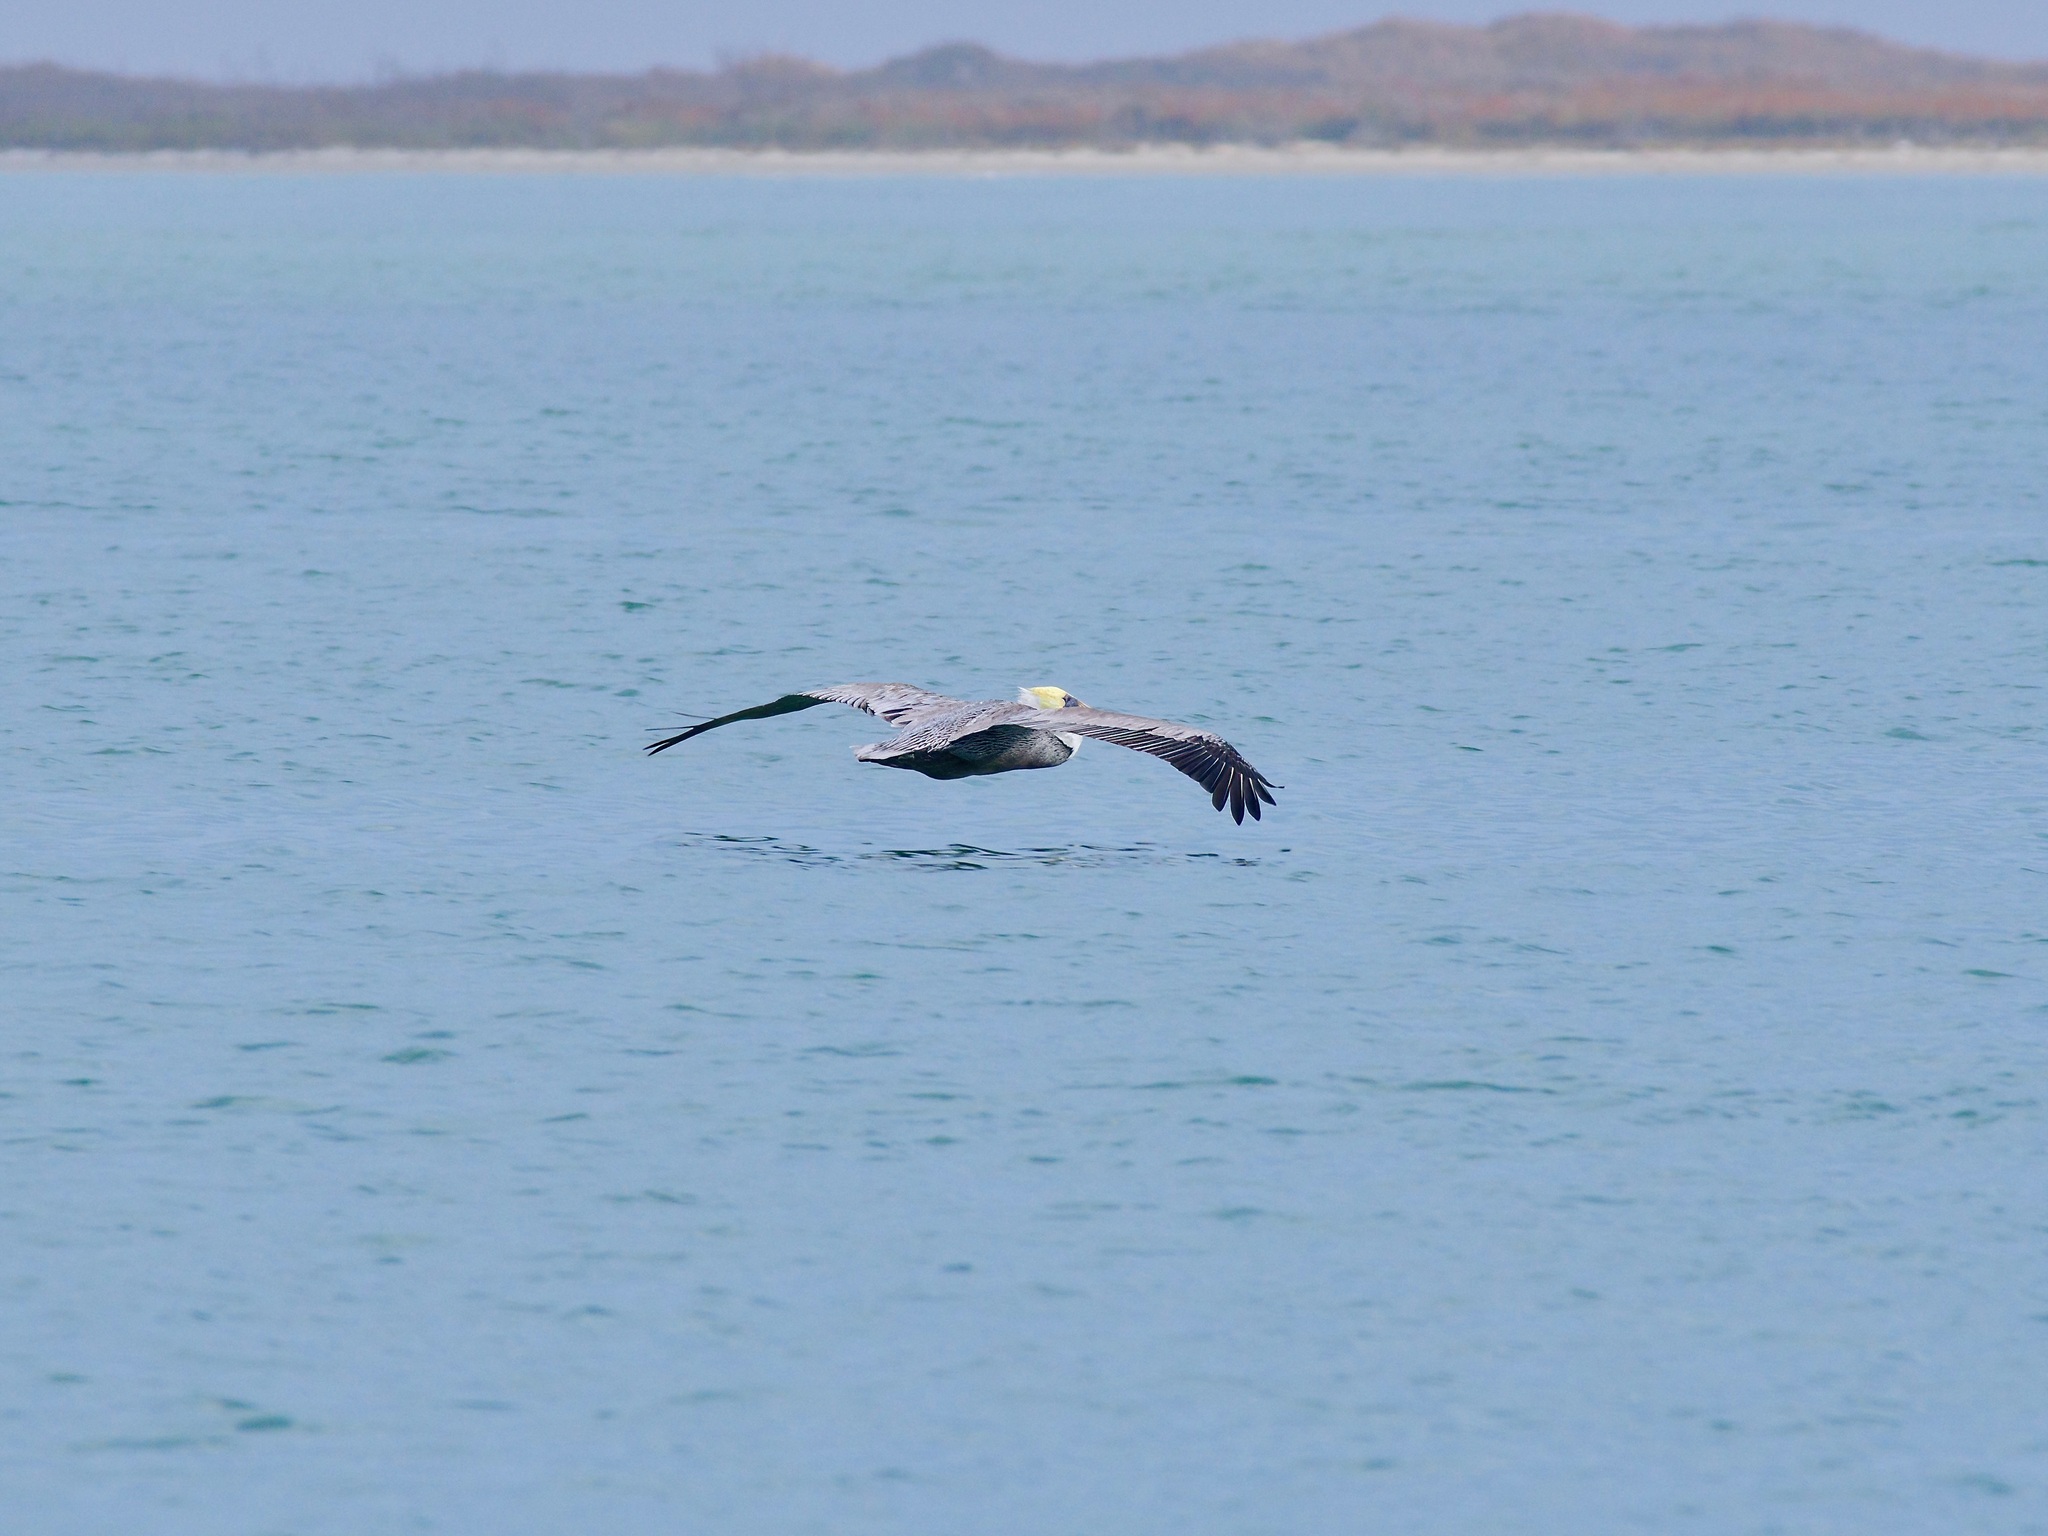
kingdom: Animalia
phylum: Chordata
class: Aves
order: Pelecaniformes
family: Pelecanidae
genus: Pelecanus
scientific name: Pelecanus occidentalis
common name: Brown pelican
